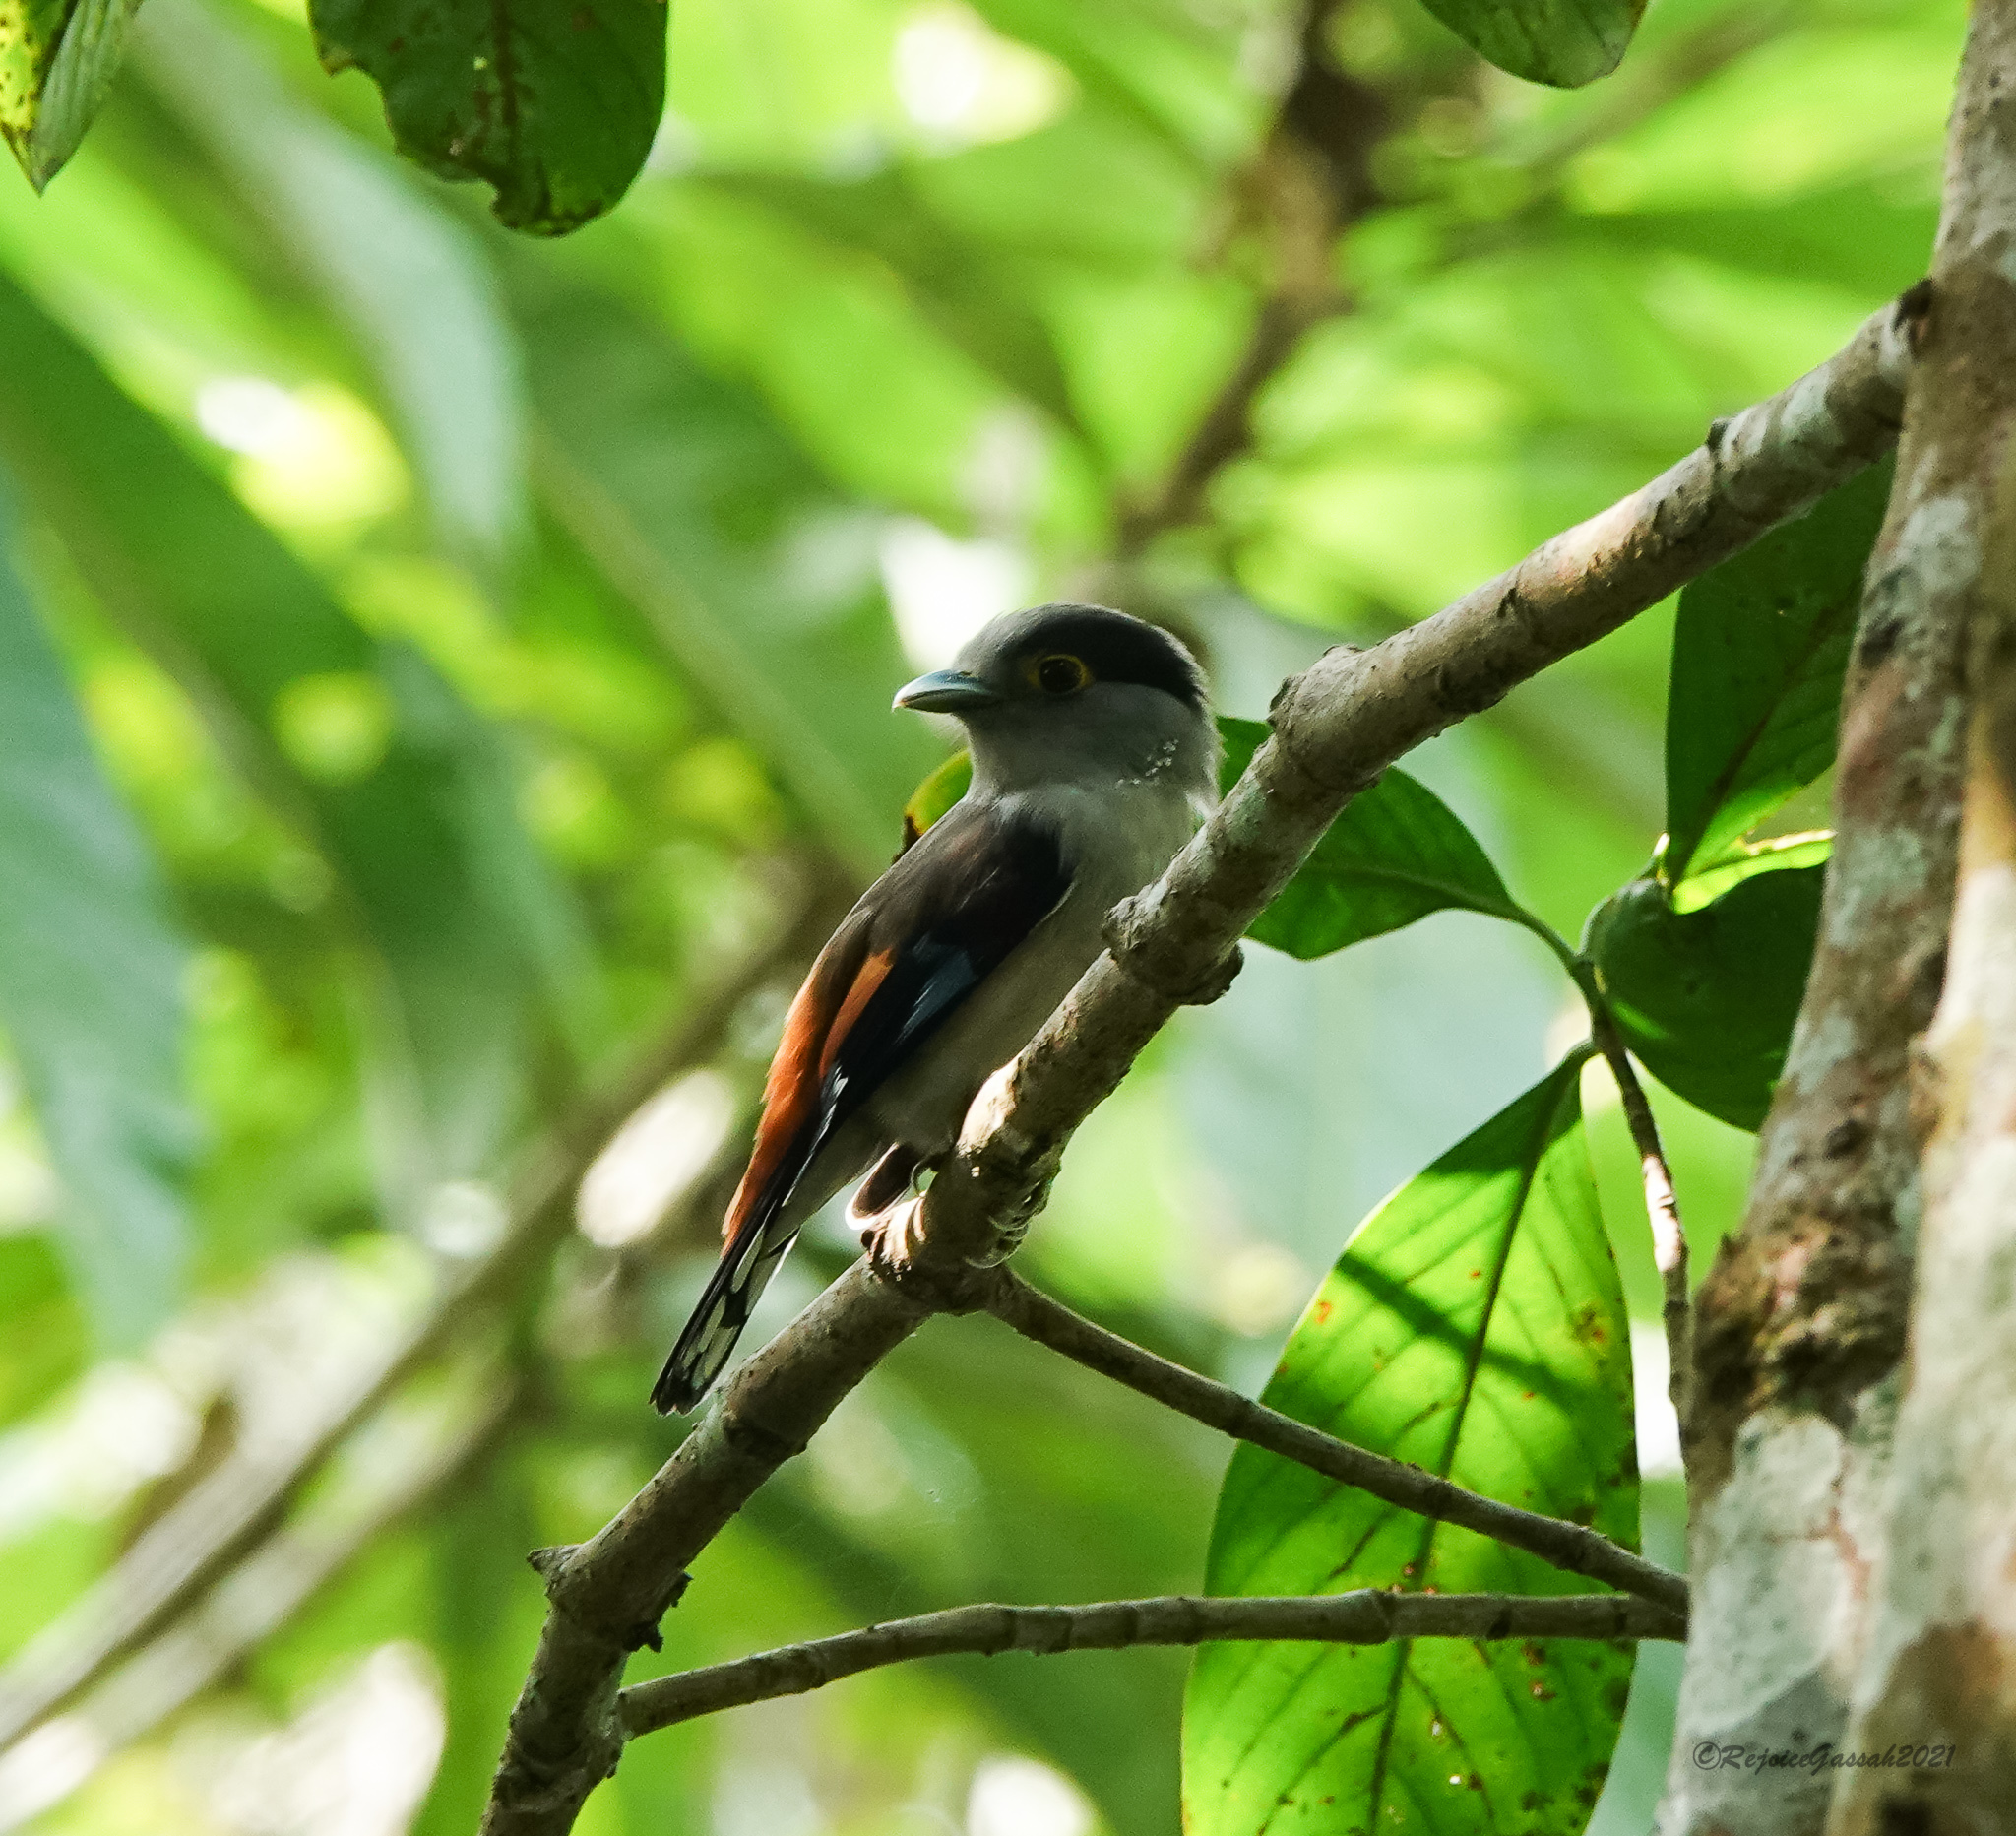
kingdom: Animalia
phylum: Chordata
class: Aves
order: Passeriformes
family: Eurylaimidae
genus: Serilophus
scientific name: Serilophus lunatus
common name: Silver-breasted broadbill
